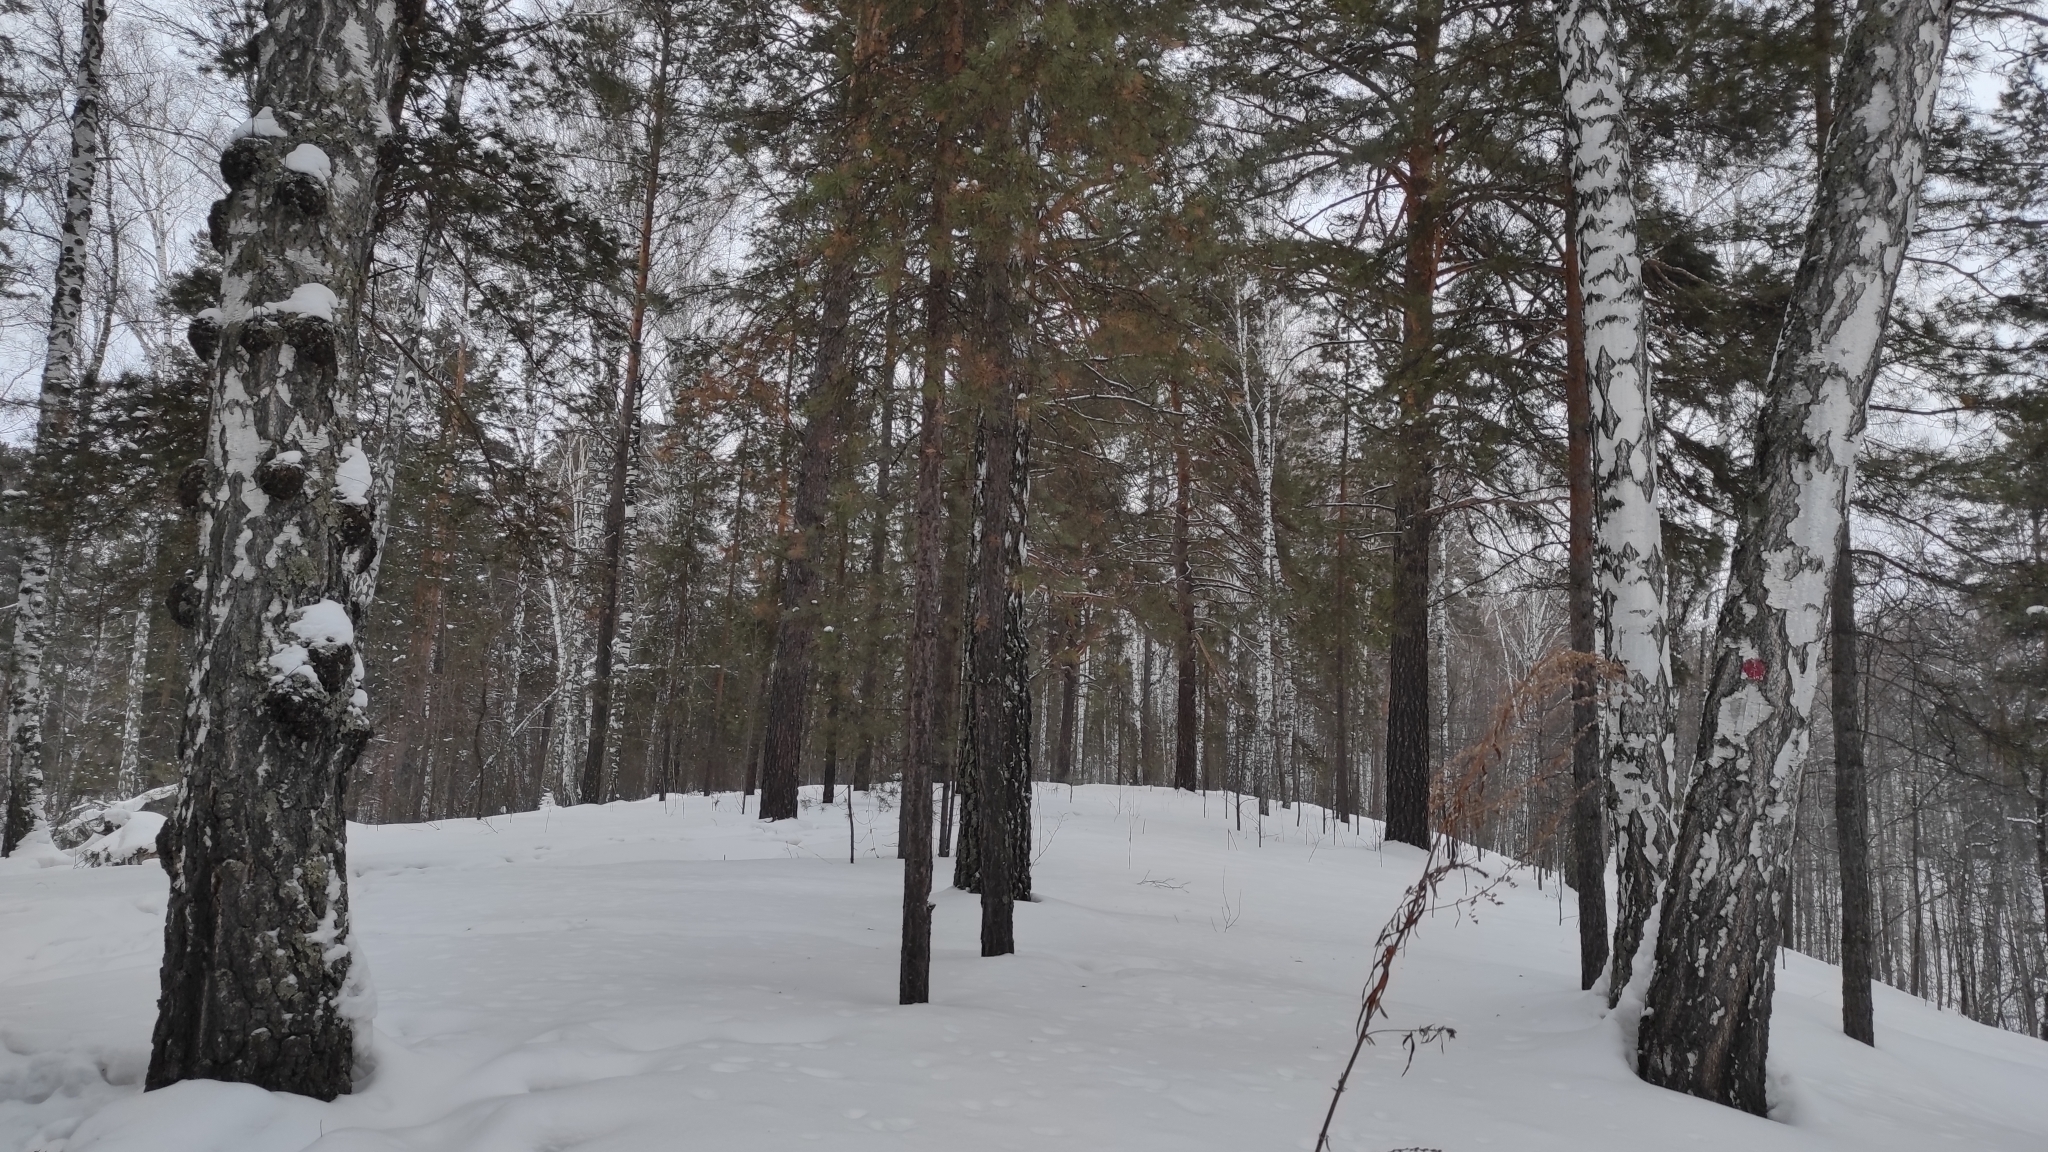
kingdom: Plantae
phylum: Tracheophyta
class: Pinopsida
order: Pinales
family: Pinaceae
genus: Pinus
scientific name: Pinus sylvestris
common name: Scots pine
